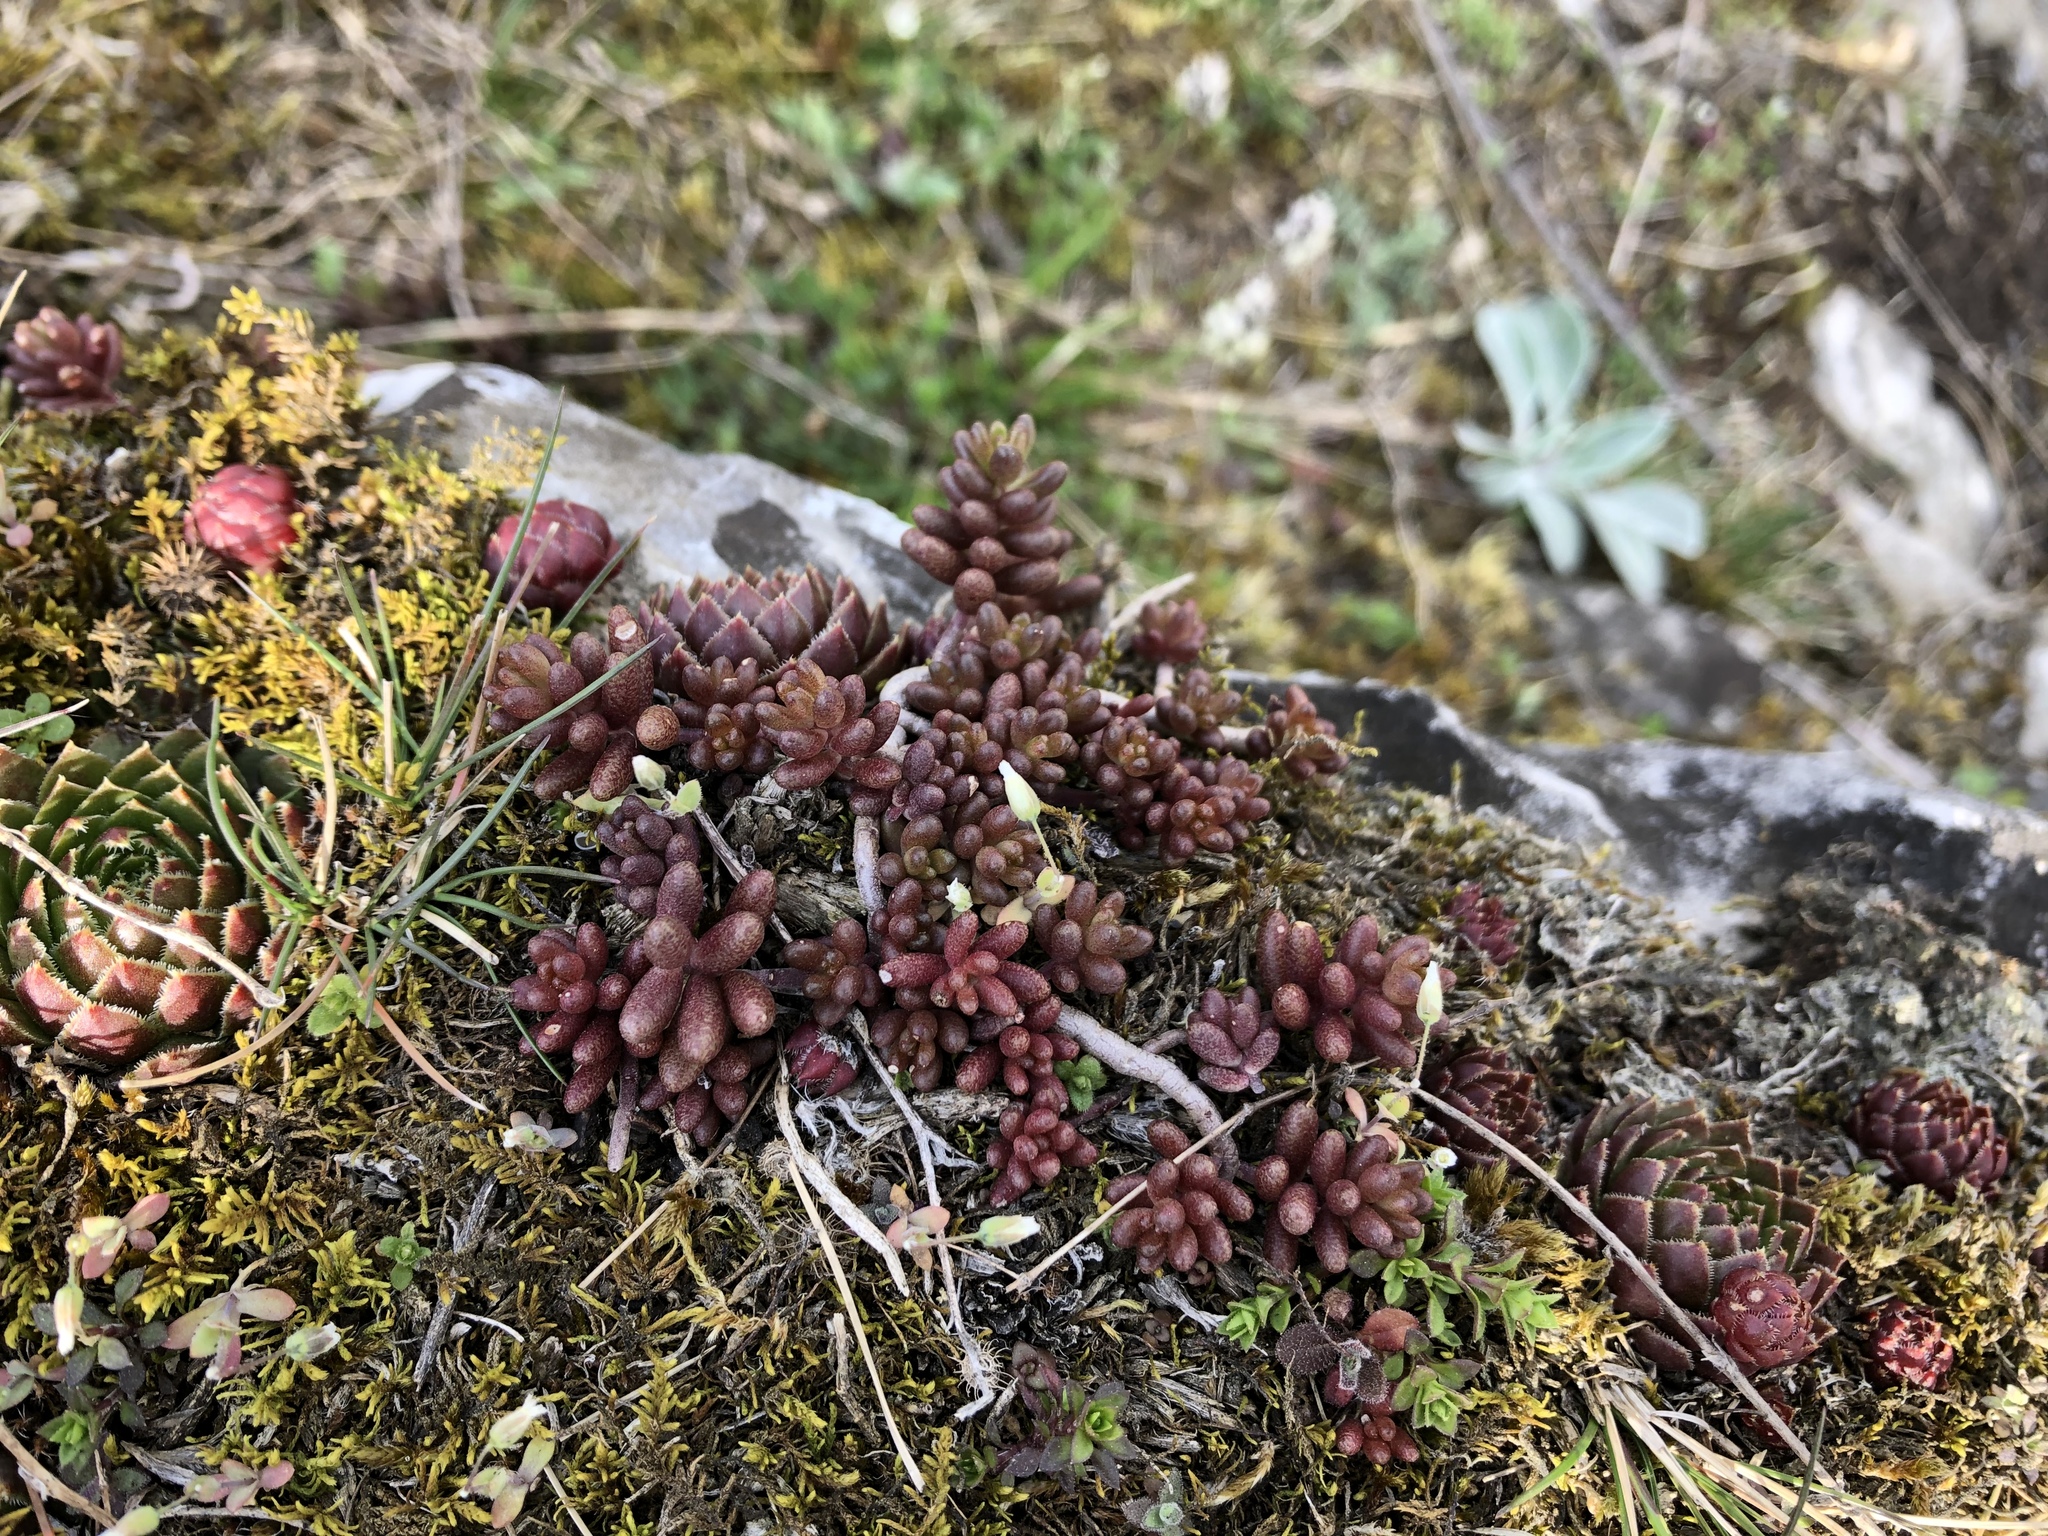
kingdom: Plantae
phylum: Tracheophyta
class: Magnoliopsida
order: Saxifragales
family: Crassulaceae
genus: Sedum
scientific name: Sedum album
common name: White stonecrop
